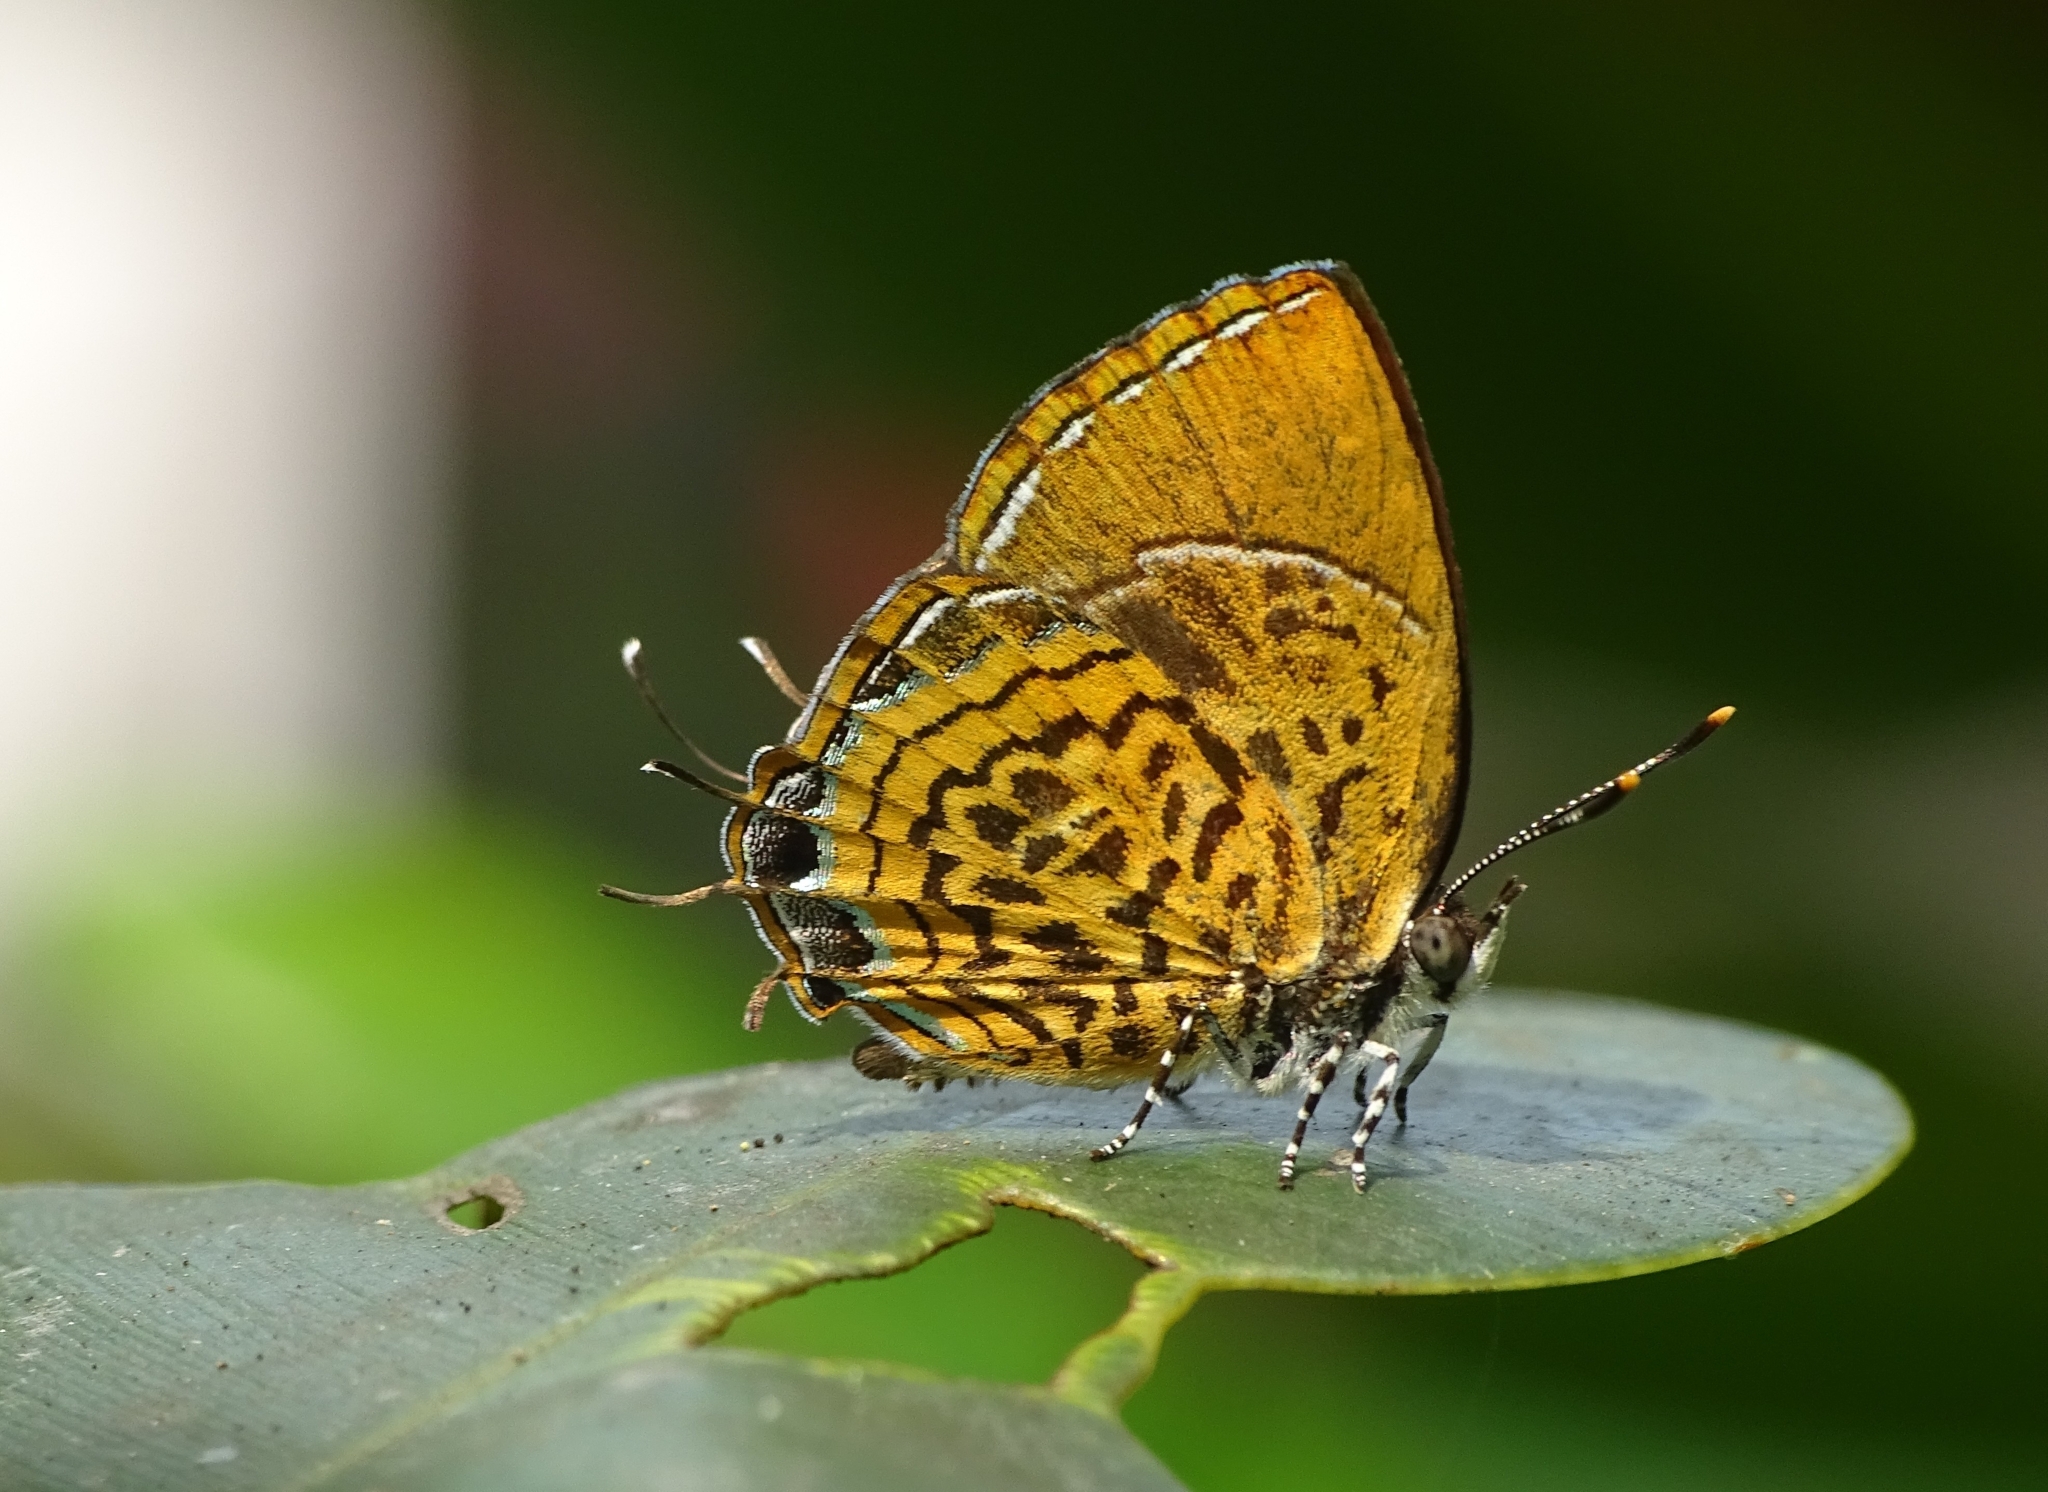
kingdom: Animalia
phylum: Arthropoda
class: Insecta
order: Lepidoptera
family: Lycaenidae
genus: Rathinda
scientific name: Rathinda amor
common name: Monkey puzzle
